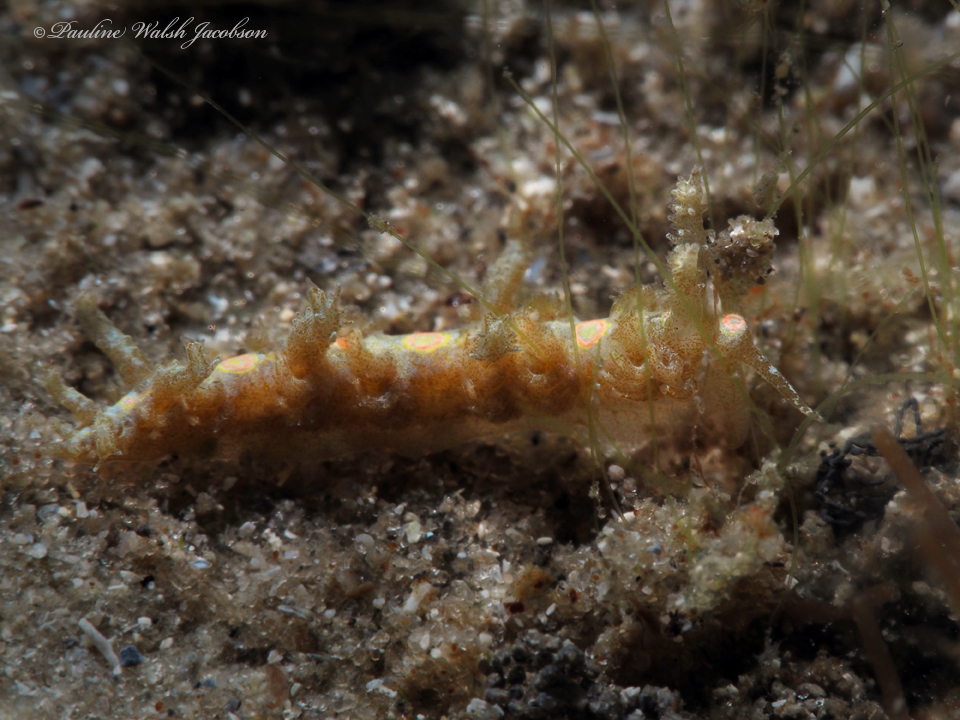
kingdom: Animalia
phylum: Mollusca
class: Gastropoda
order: Nudibranchia
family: Aeolidiidae
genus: Limenandra
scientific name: Limenandra nodosa
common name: Warty baeolidia
